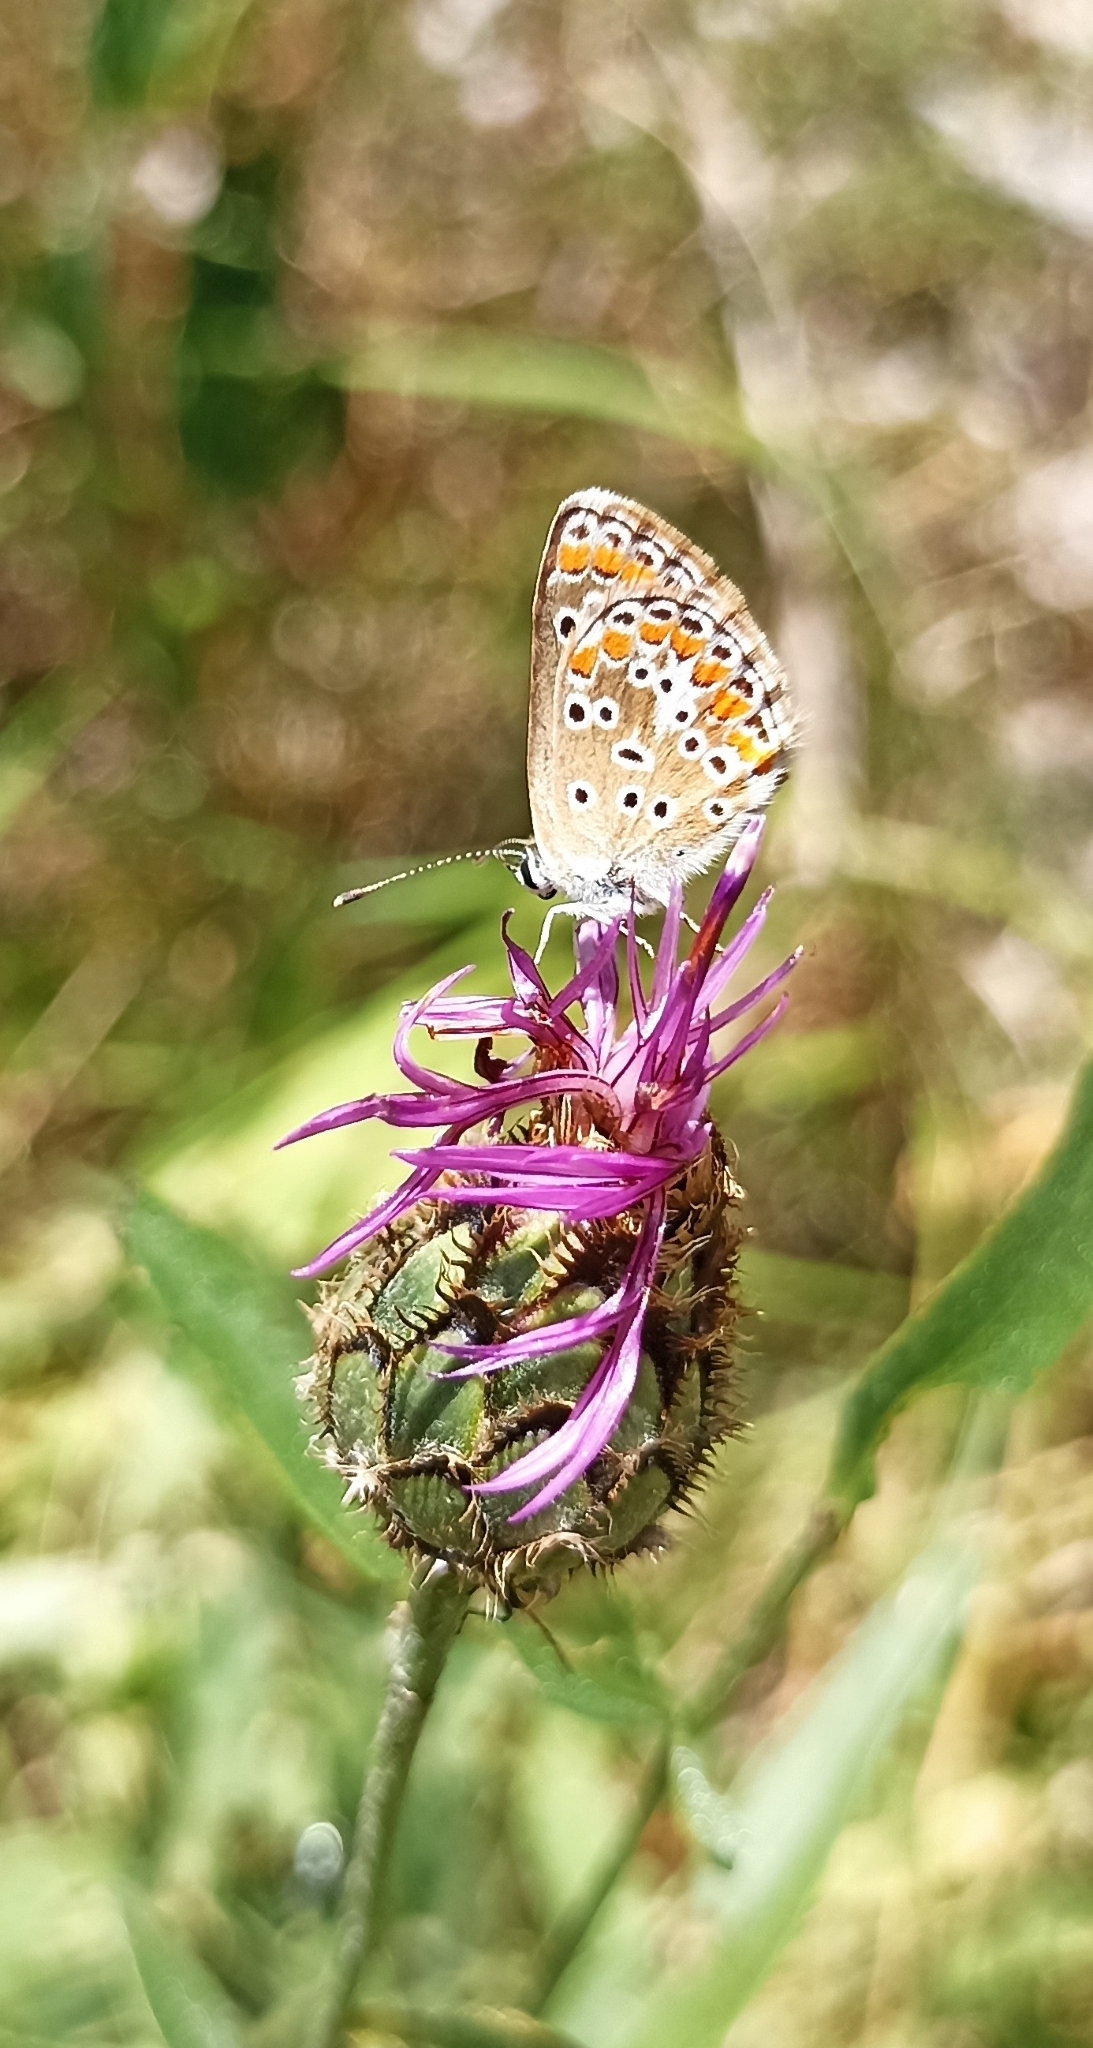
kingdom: Animalia
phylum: Arthropoda
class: Insecta
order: Lepidoptera
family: Lycaenidae
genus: Aricia
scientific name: Aricia agestis
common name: Brown argus
